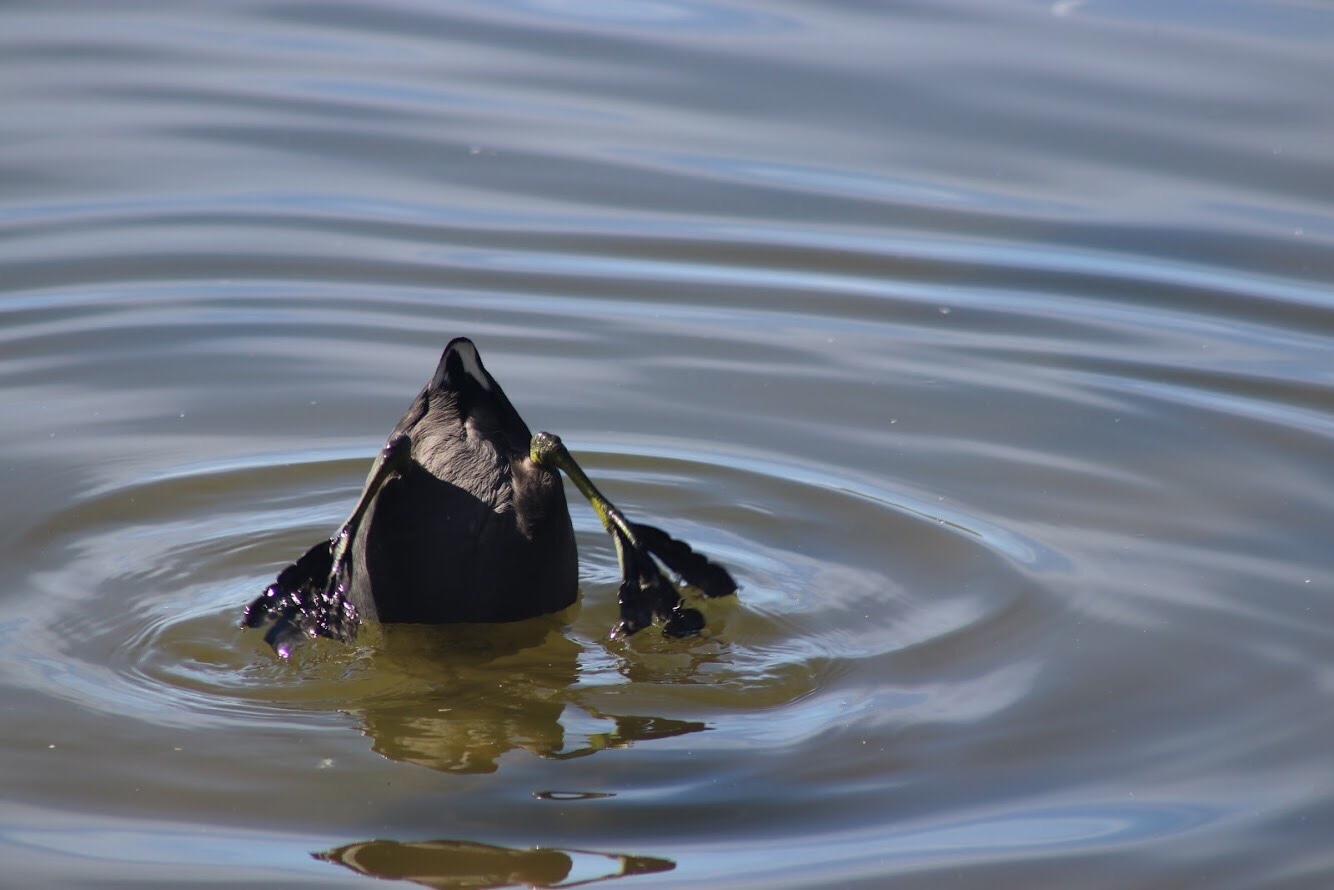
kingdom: Animalia
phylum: Chordata
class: Aves
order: Gruiformes
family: Rallidae
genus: Fulica
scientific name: Fulica americana
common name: American coot
